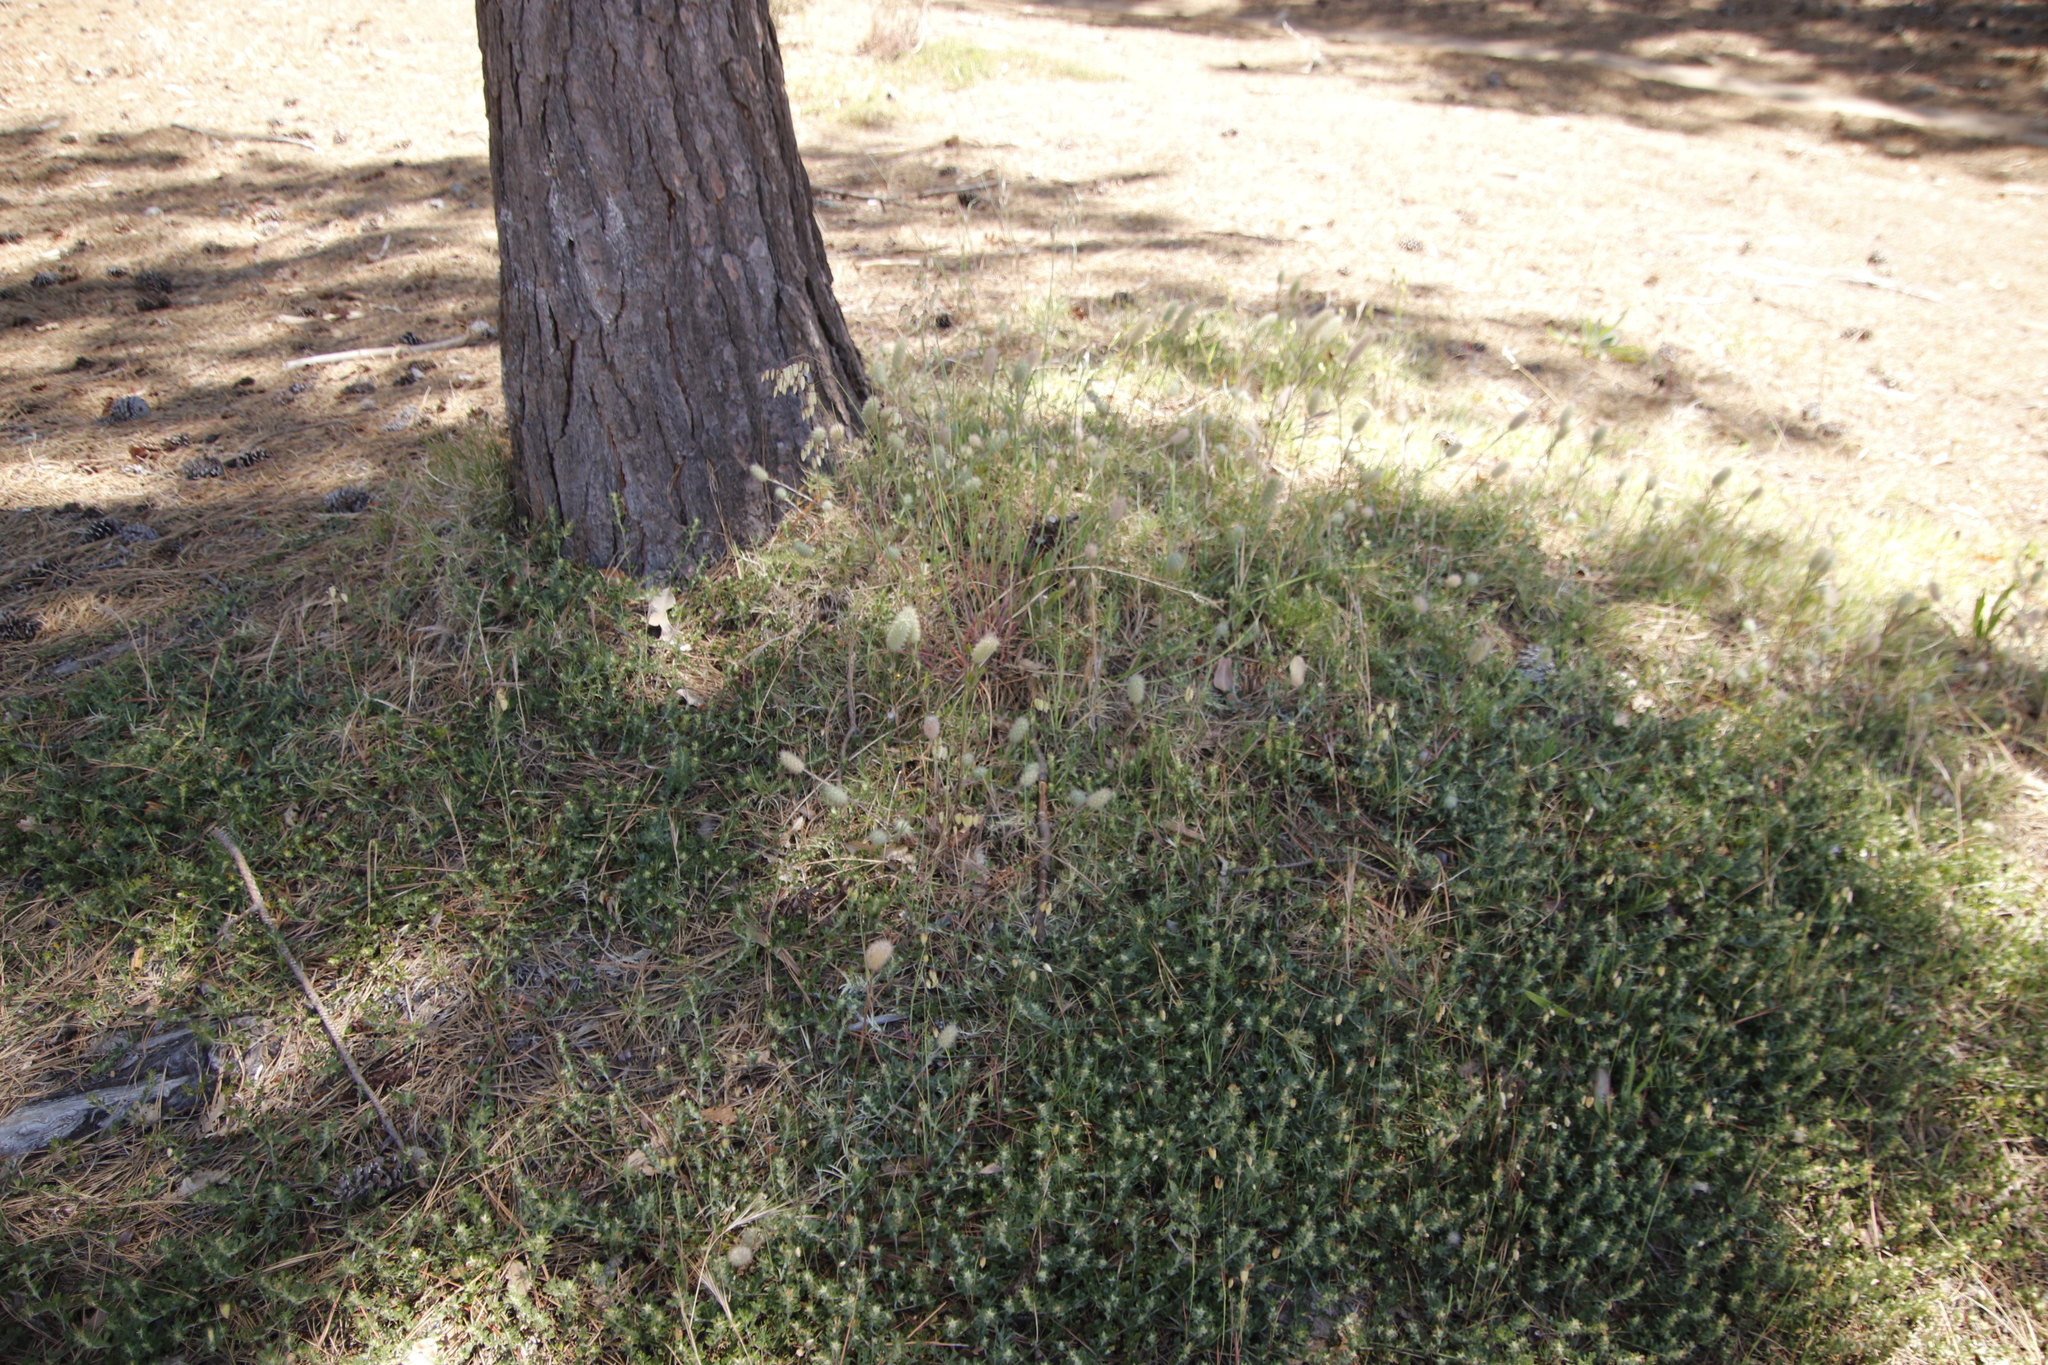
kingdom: Plantae
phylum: Tracheophyta
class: Magnoliopsida
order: Fabales
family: Fabaceae
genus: Trifolium
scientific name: Trifolium angustifolium
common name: Narrow clover
